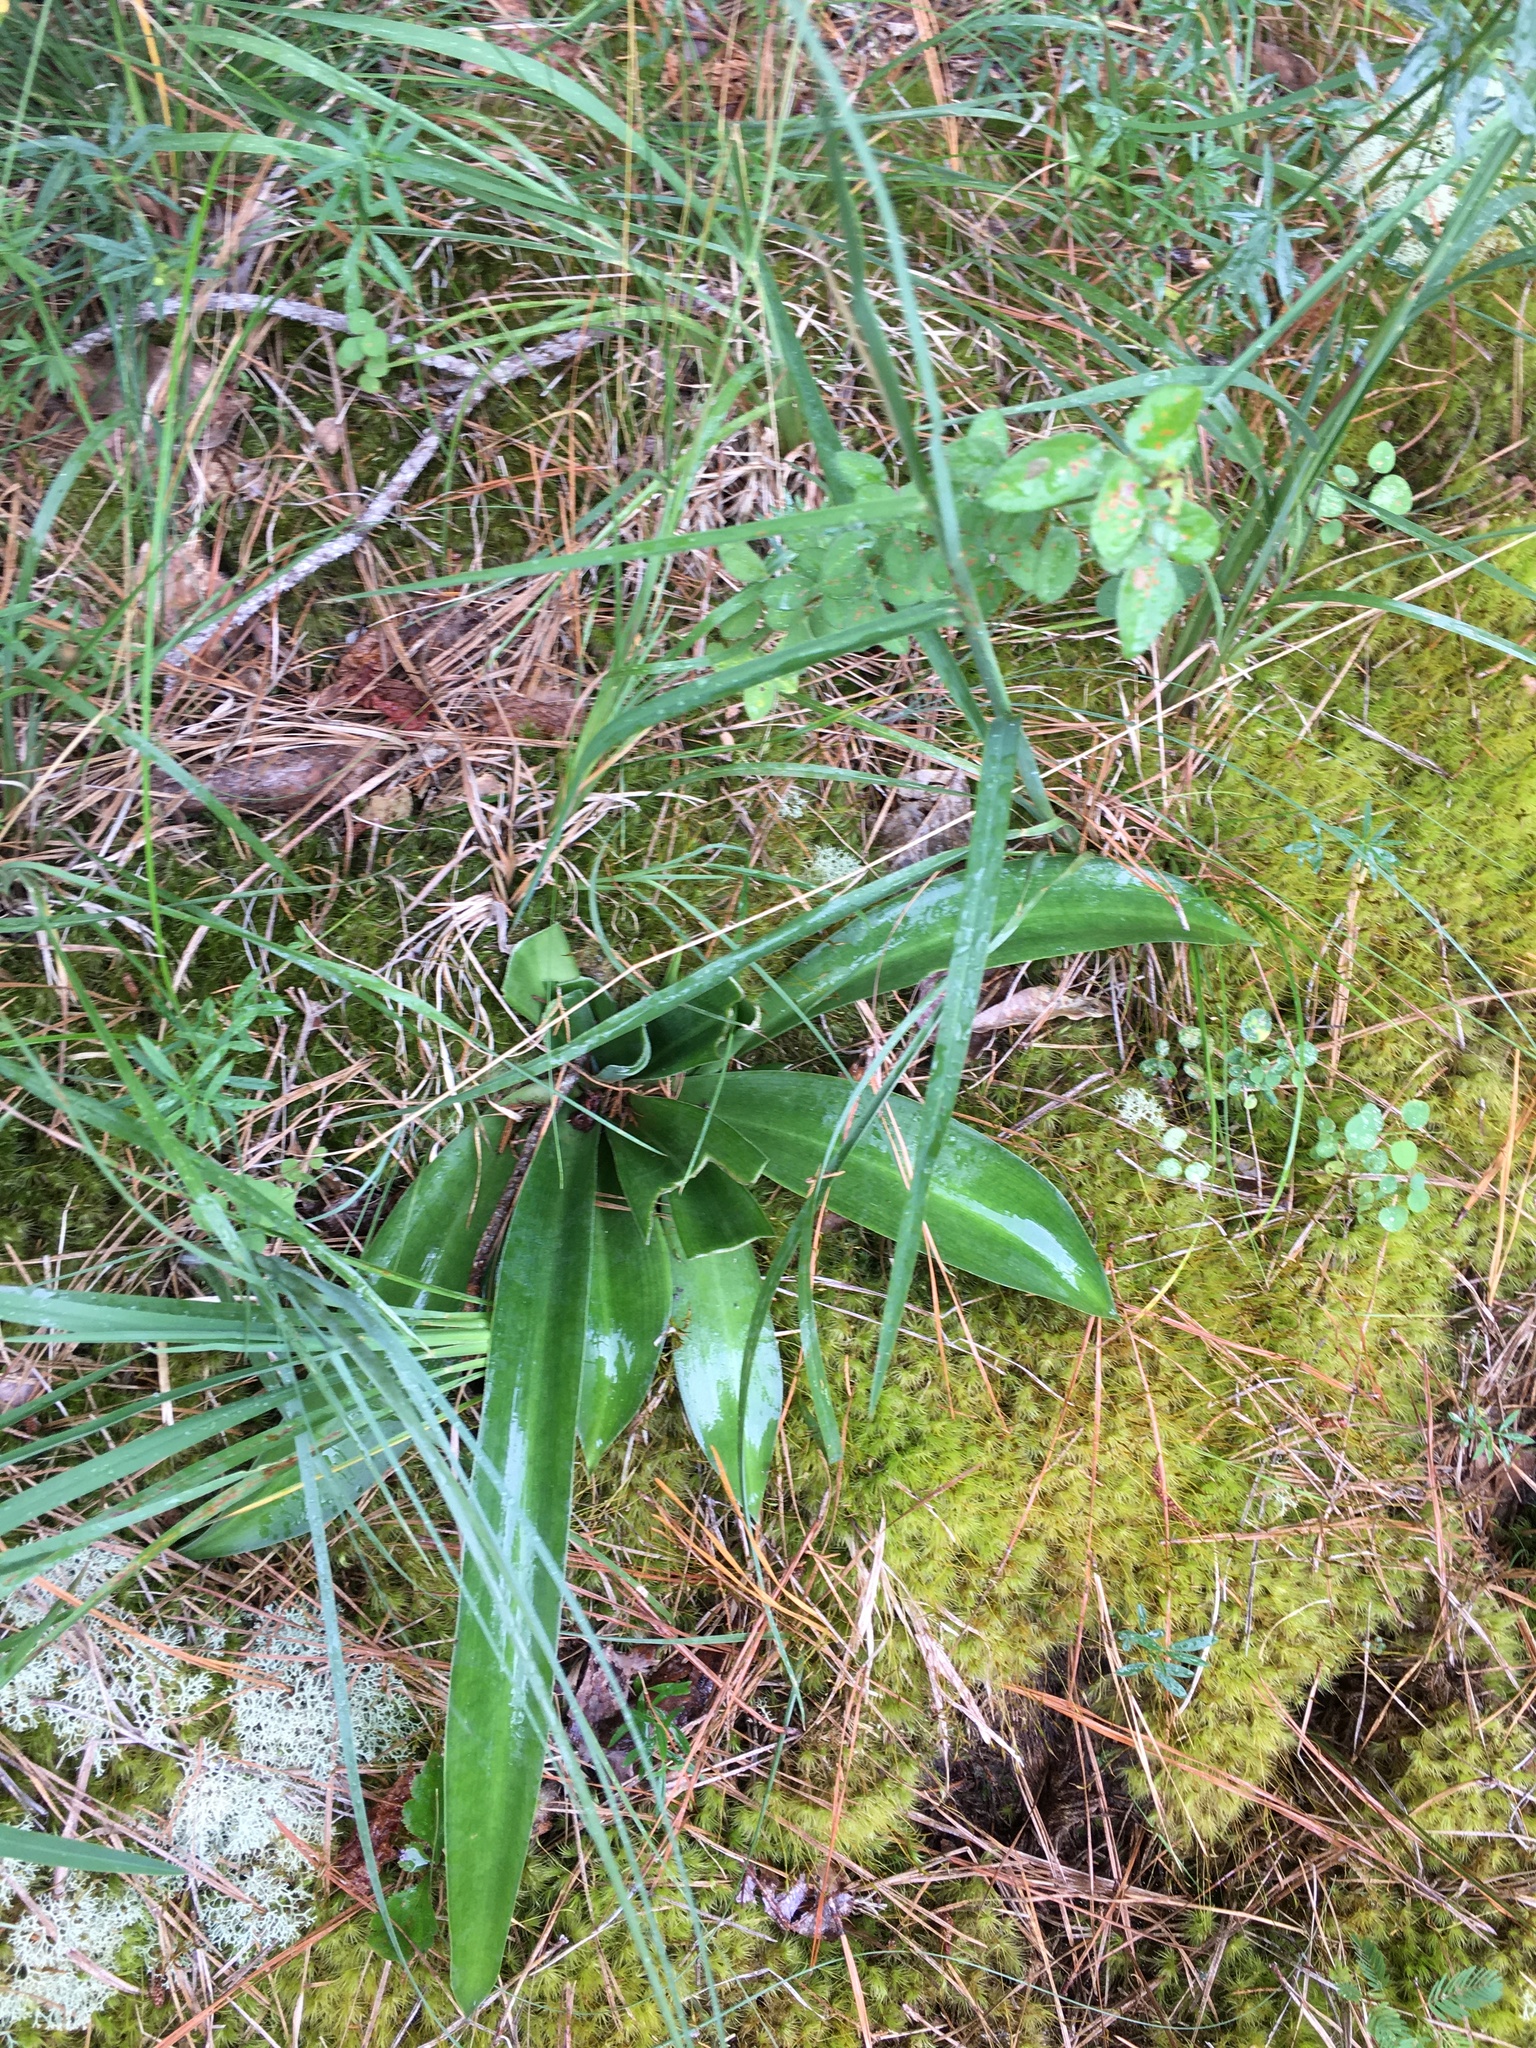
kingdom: Plantae
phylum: Tracheophyta
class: Liliopsida
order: Asparagales
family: Asparagaceae
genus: Agave
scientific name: Agave virginica
